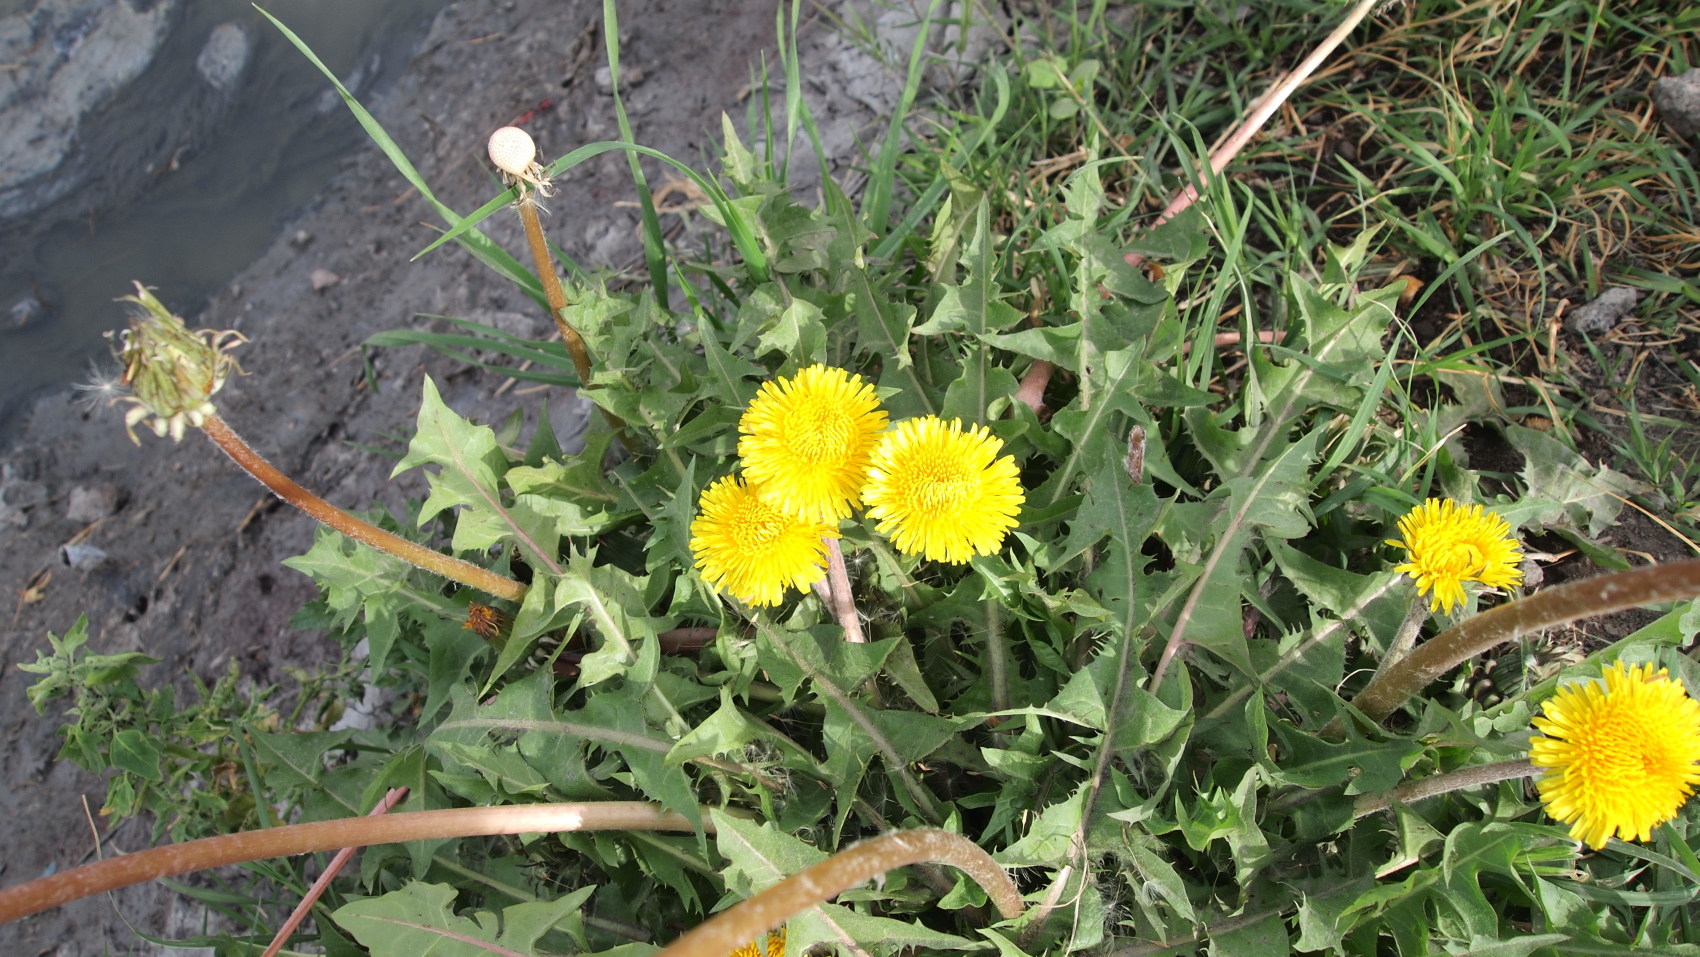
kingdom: Plantae
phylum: Tracheophyta
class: Magnoliopsida
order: Asterales
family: Asteraceae
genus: Taraxacum
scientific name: Taraxacum officinale
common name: Common dandelion
